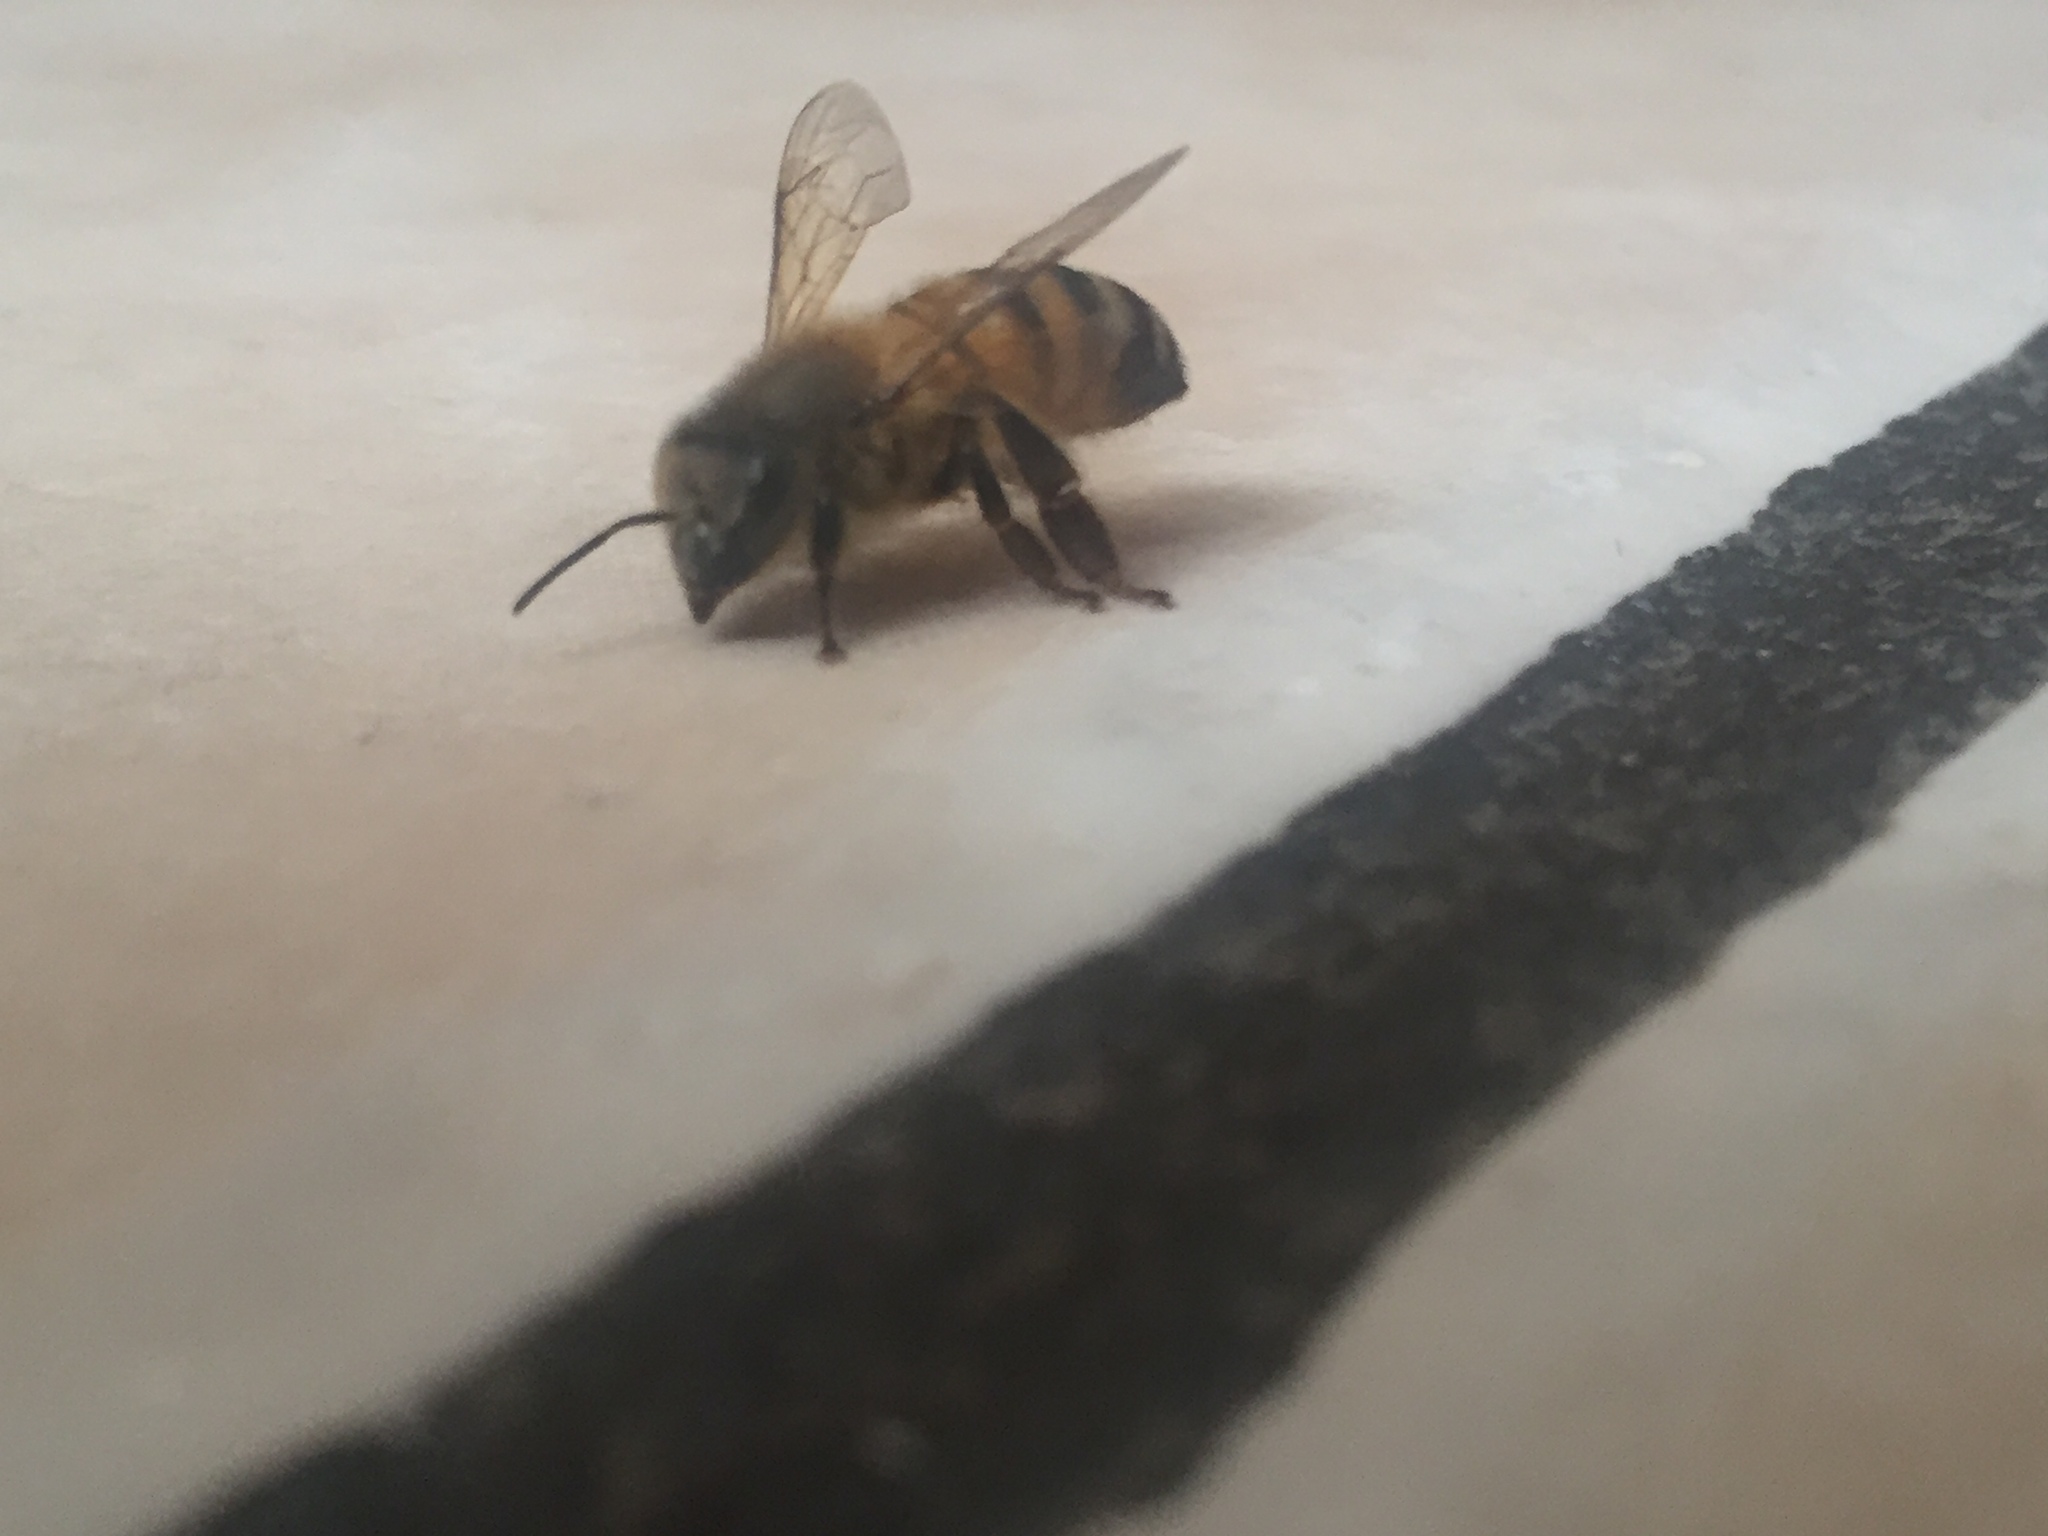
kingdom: Animalia
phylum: Arthropoda
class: Insecta
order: Hymenoptera
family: Apidae
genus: Apis
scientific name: Apis mellifera
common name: Honey bee
